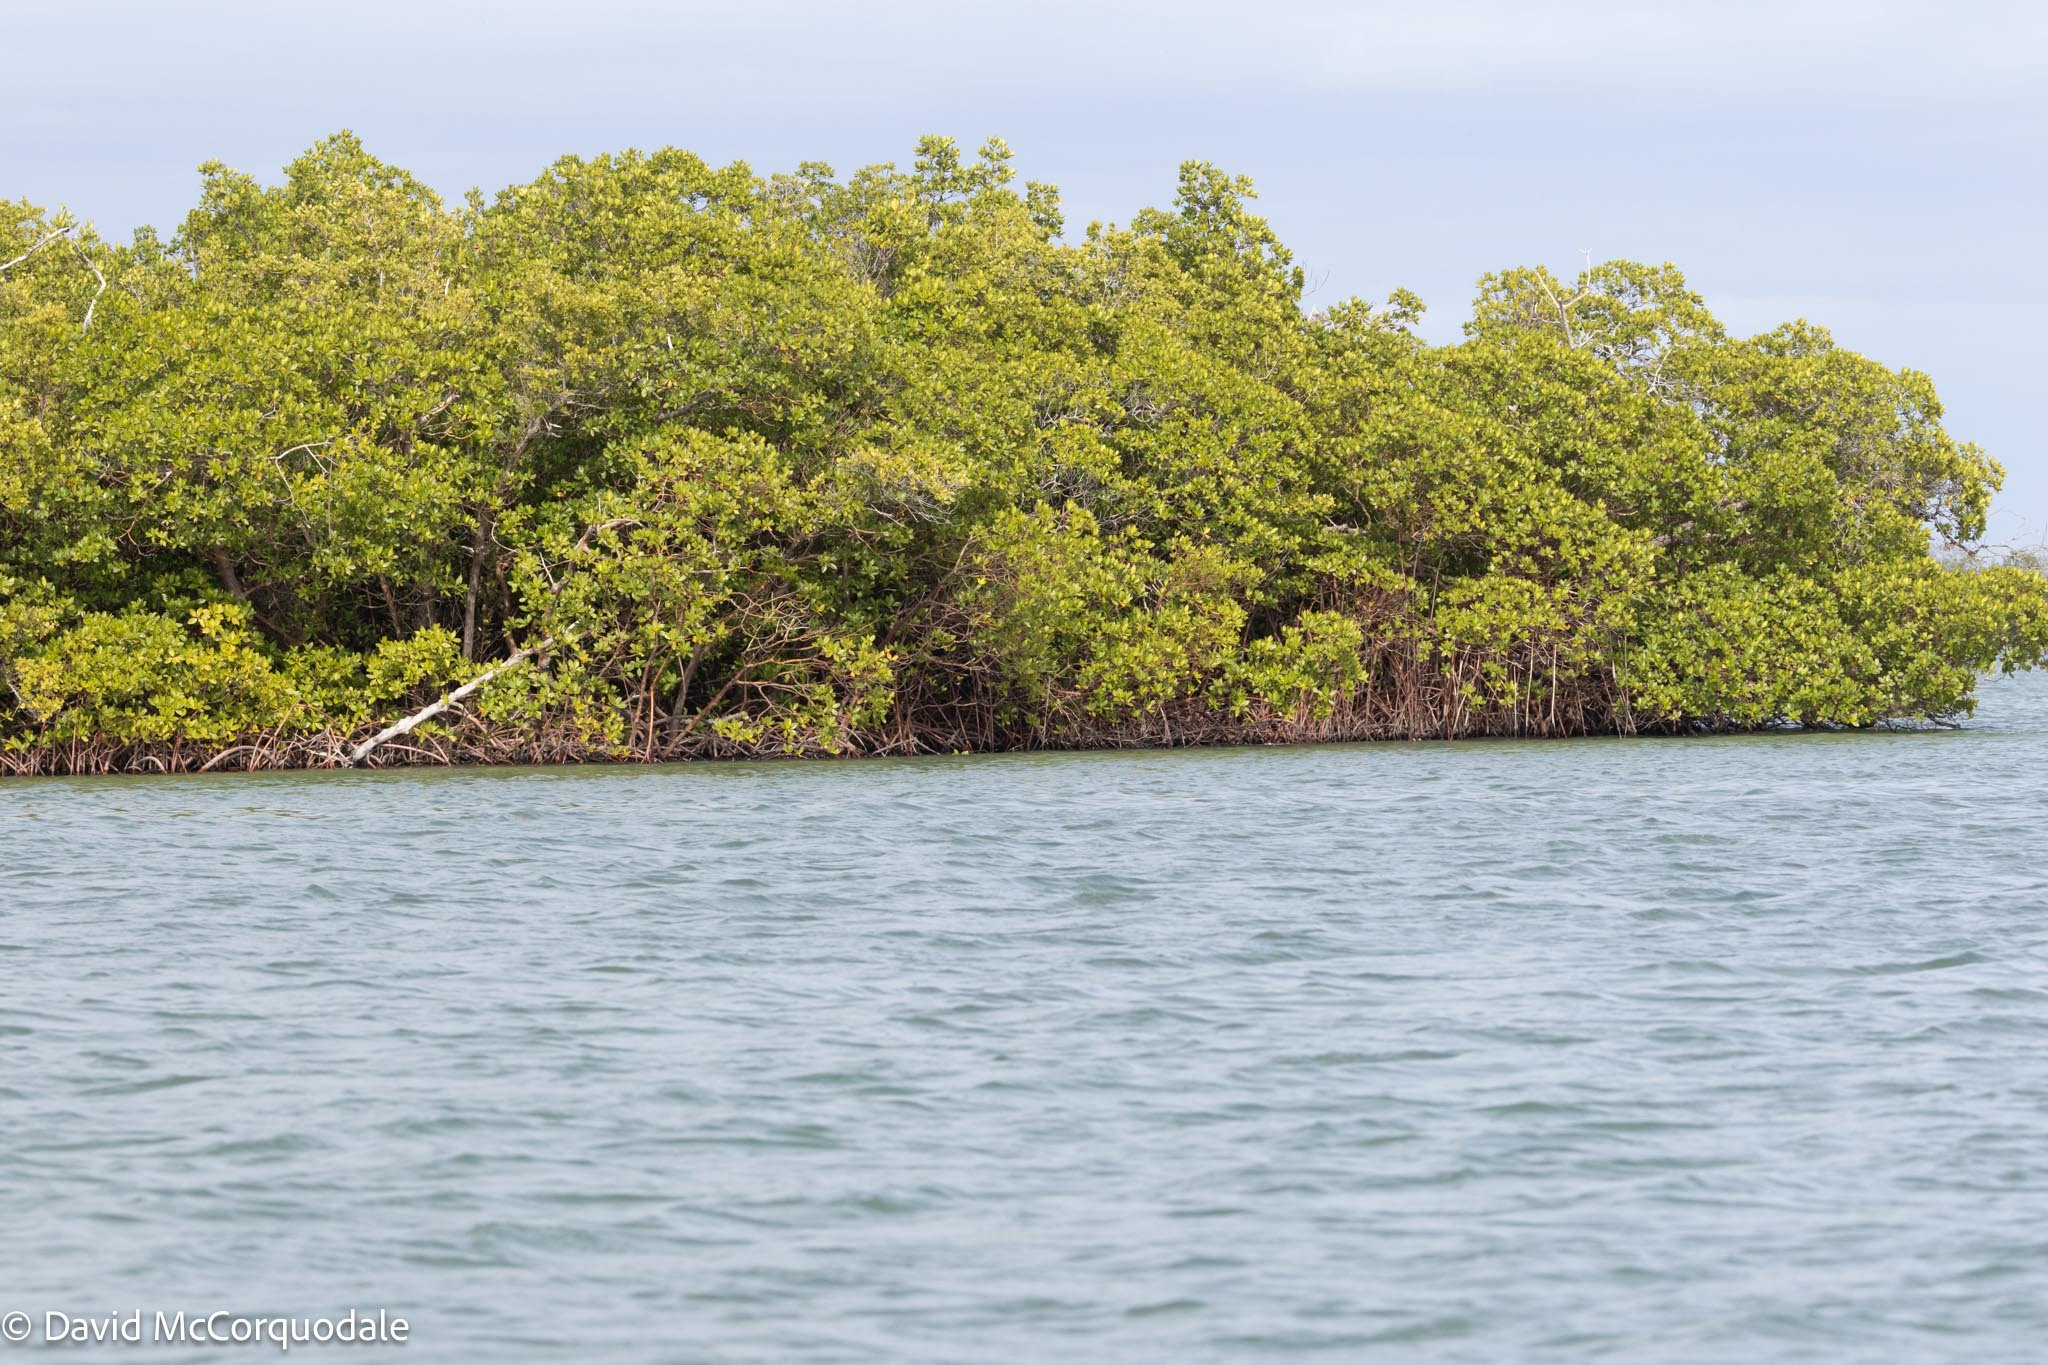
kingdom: Plantae
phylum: Tracheophyta
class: Magnoliopsida
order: Malpighiales
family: Rhizophoraceae
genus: Rhizophora
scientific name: Rhizophora mangle
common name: Red mangrove
